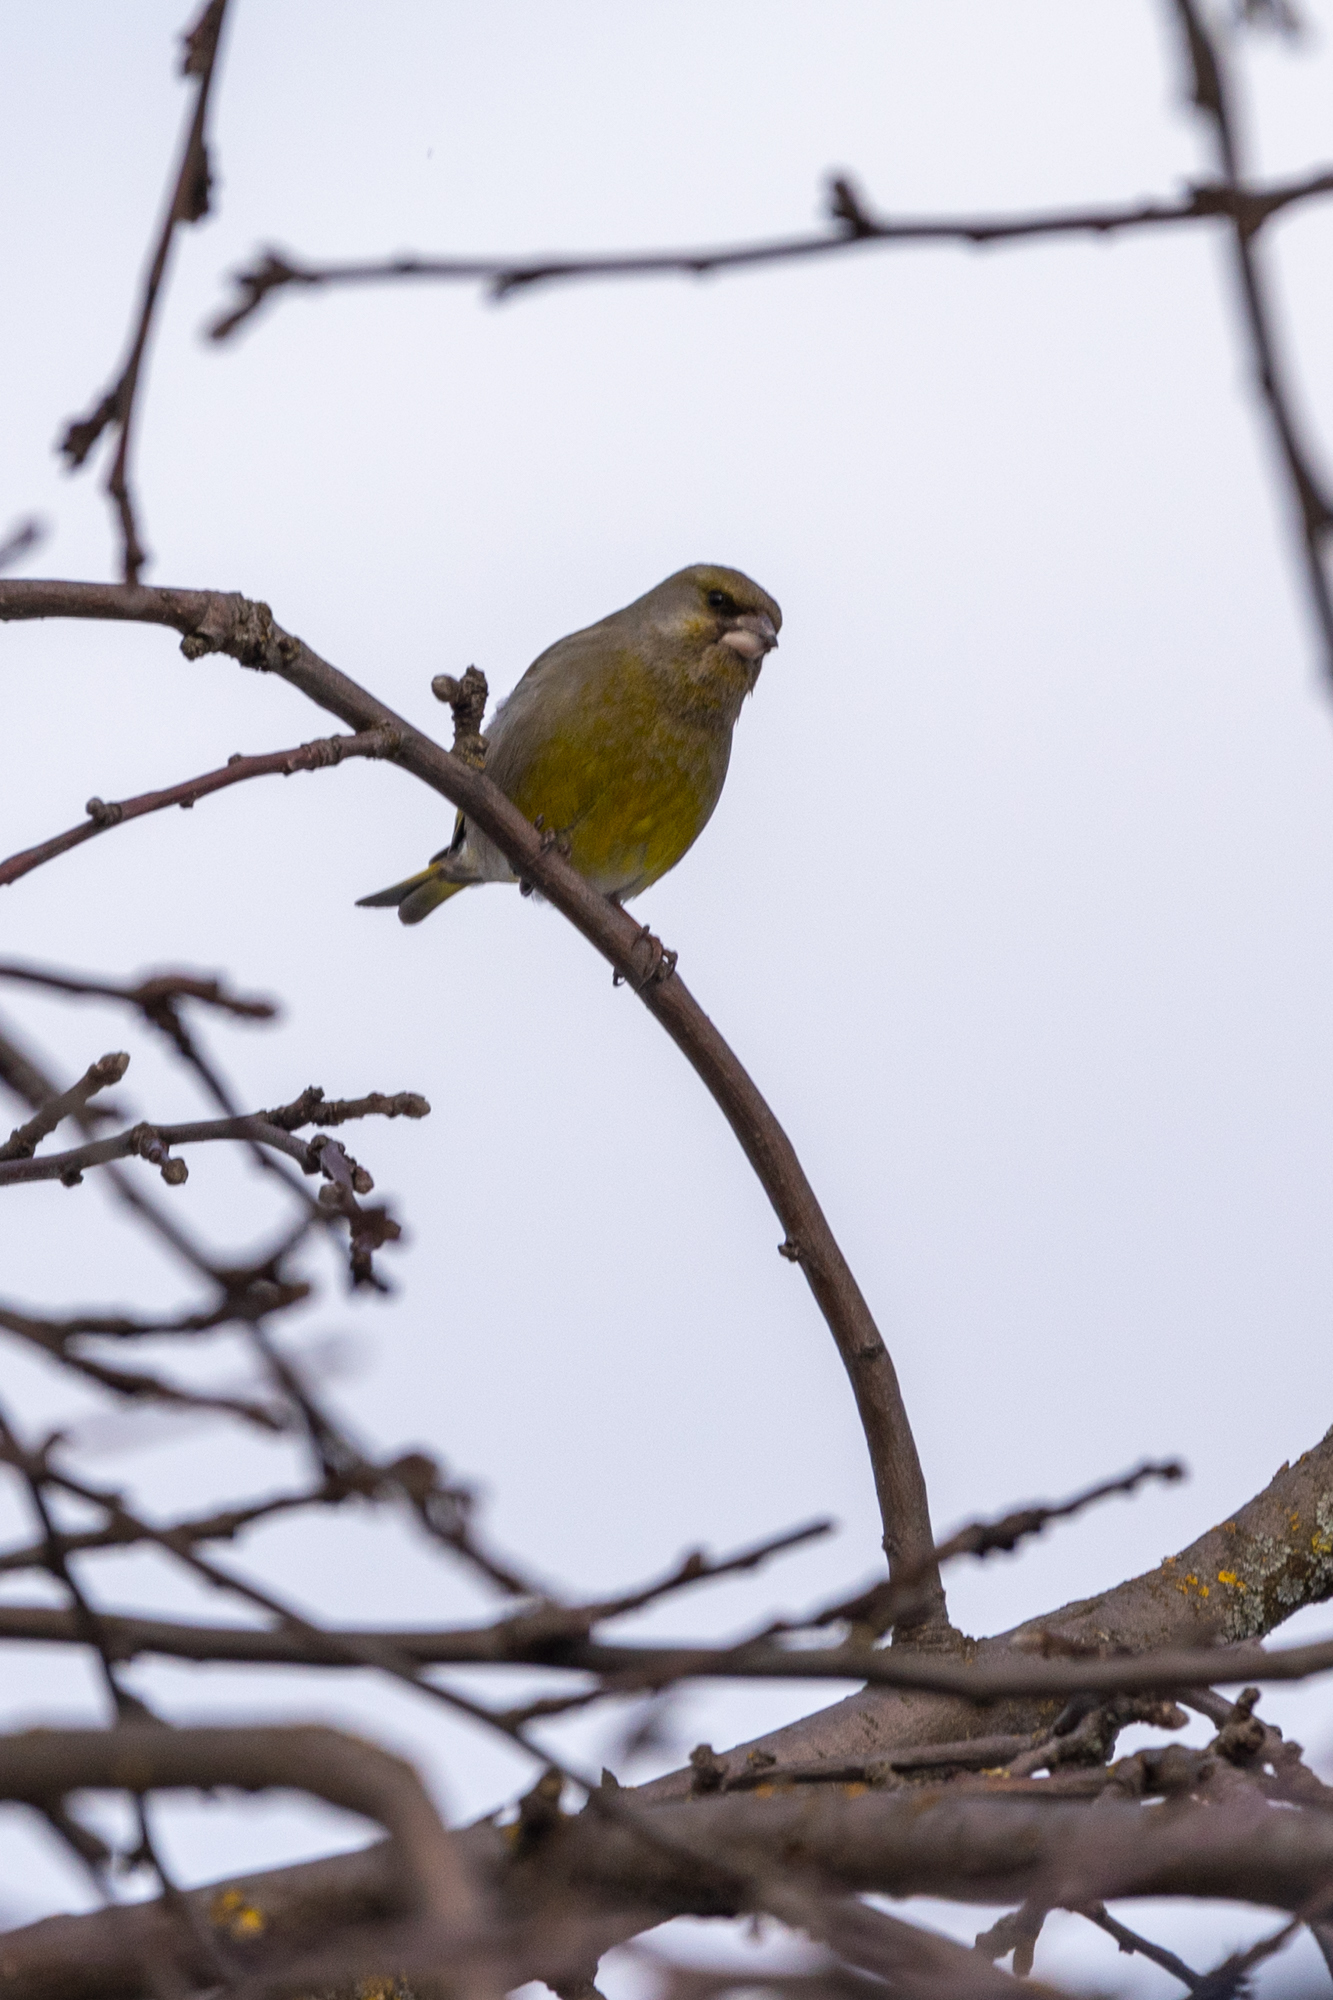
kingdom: Plantae
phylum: Tracheophyta
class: Liliopsida
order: Poales
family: Poaceae
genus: Chloris
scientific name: Chloris chloris
